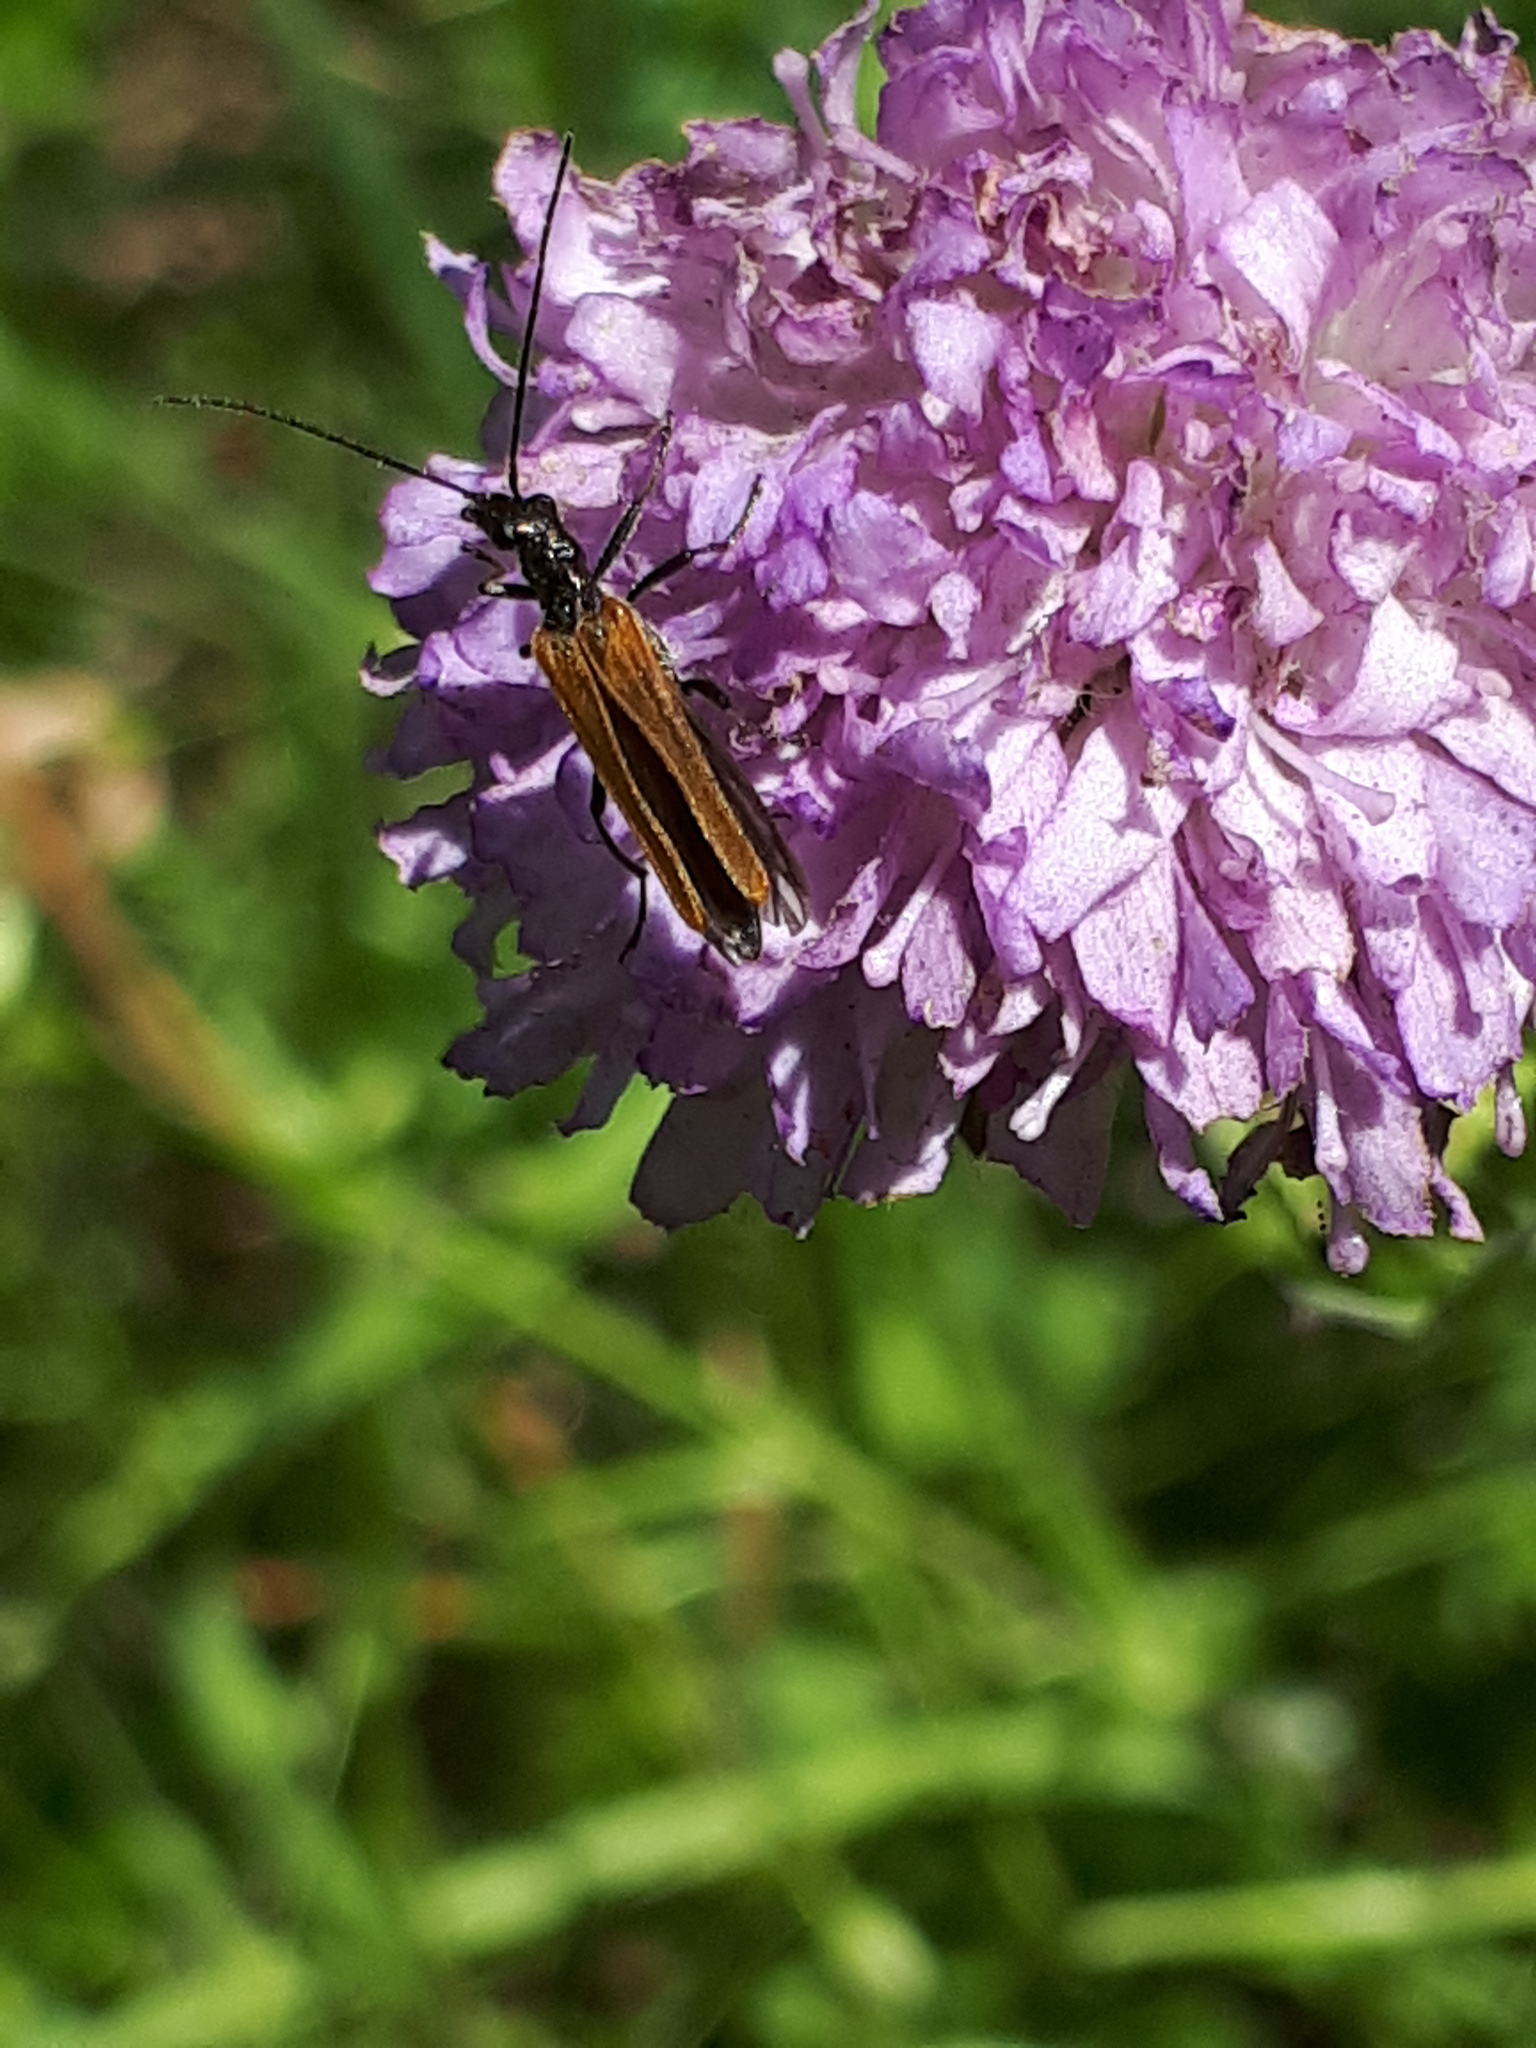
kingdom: Animalia
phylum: Arthropoda
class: Insecta
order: Coleoptera
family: Oedemeridae
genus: Oedemera
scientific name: Oedemera femorata
